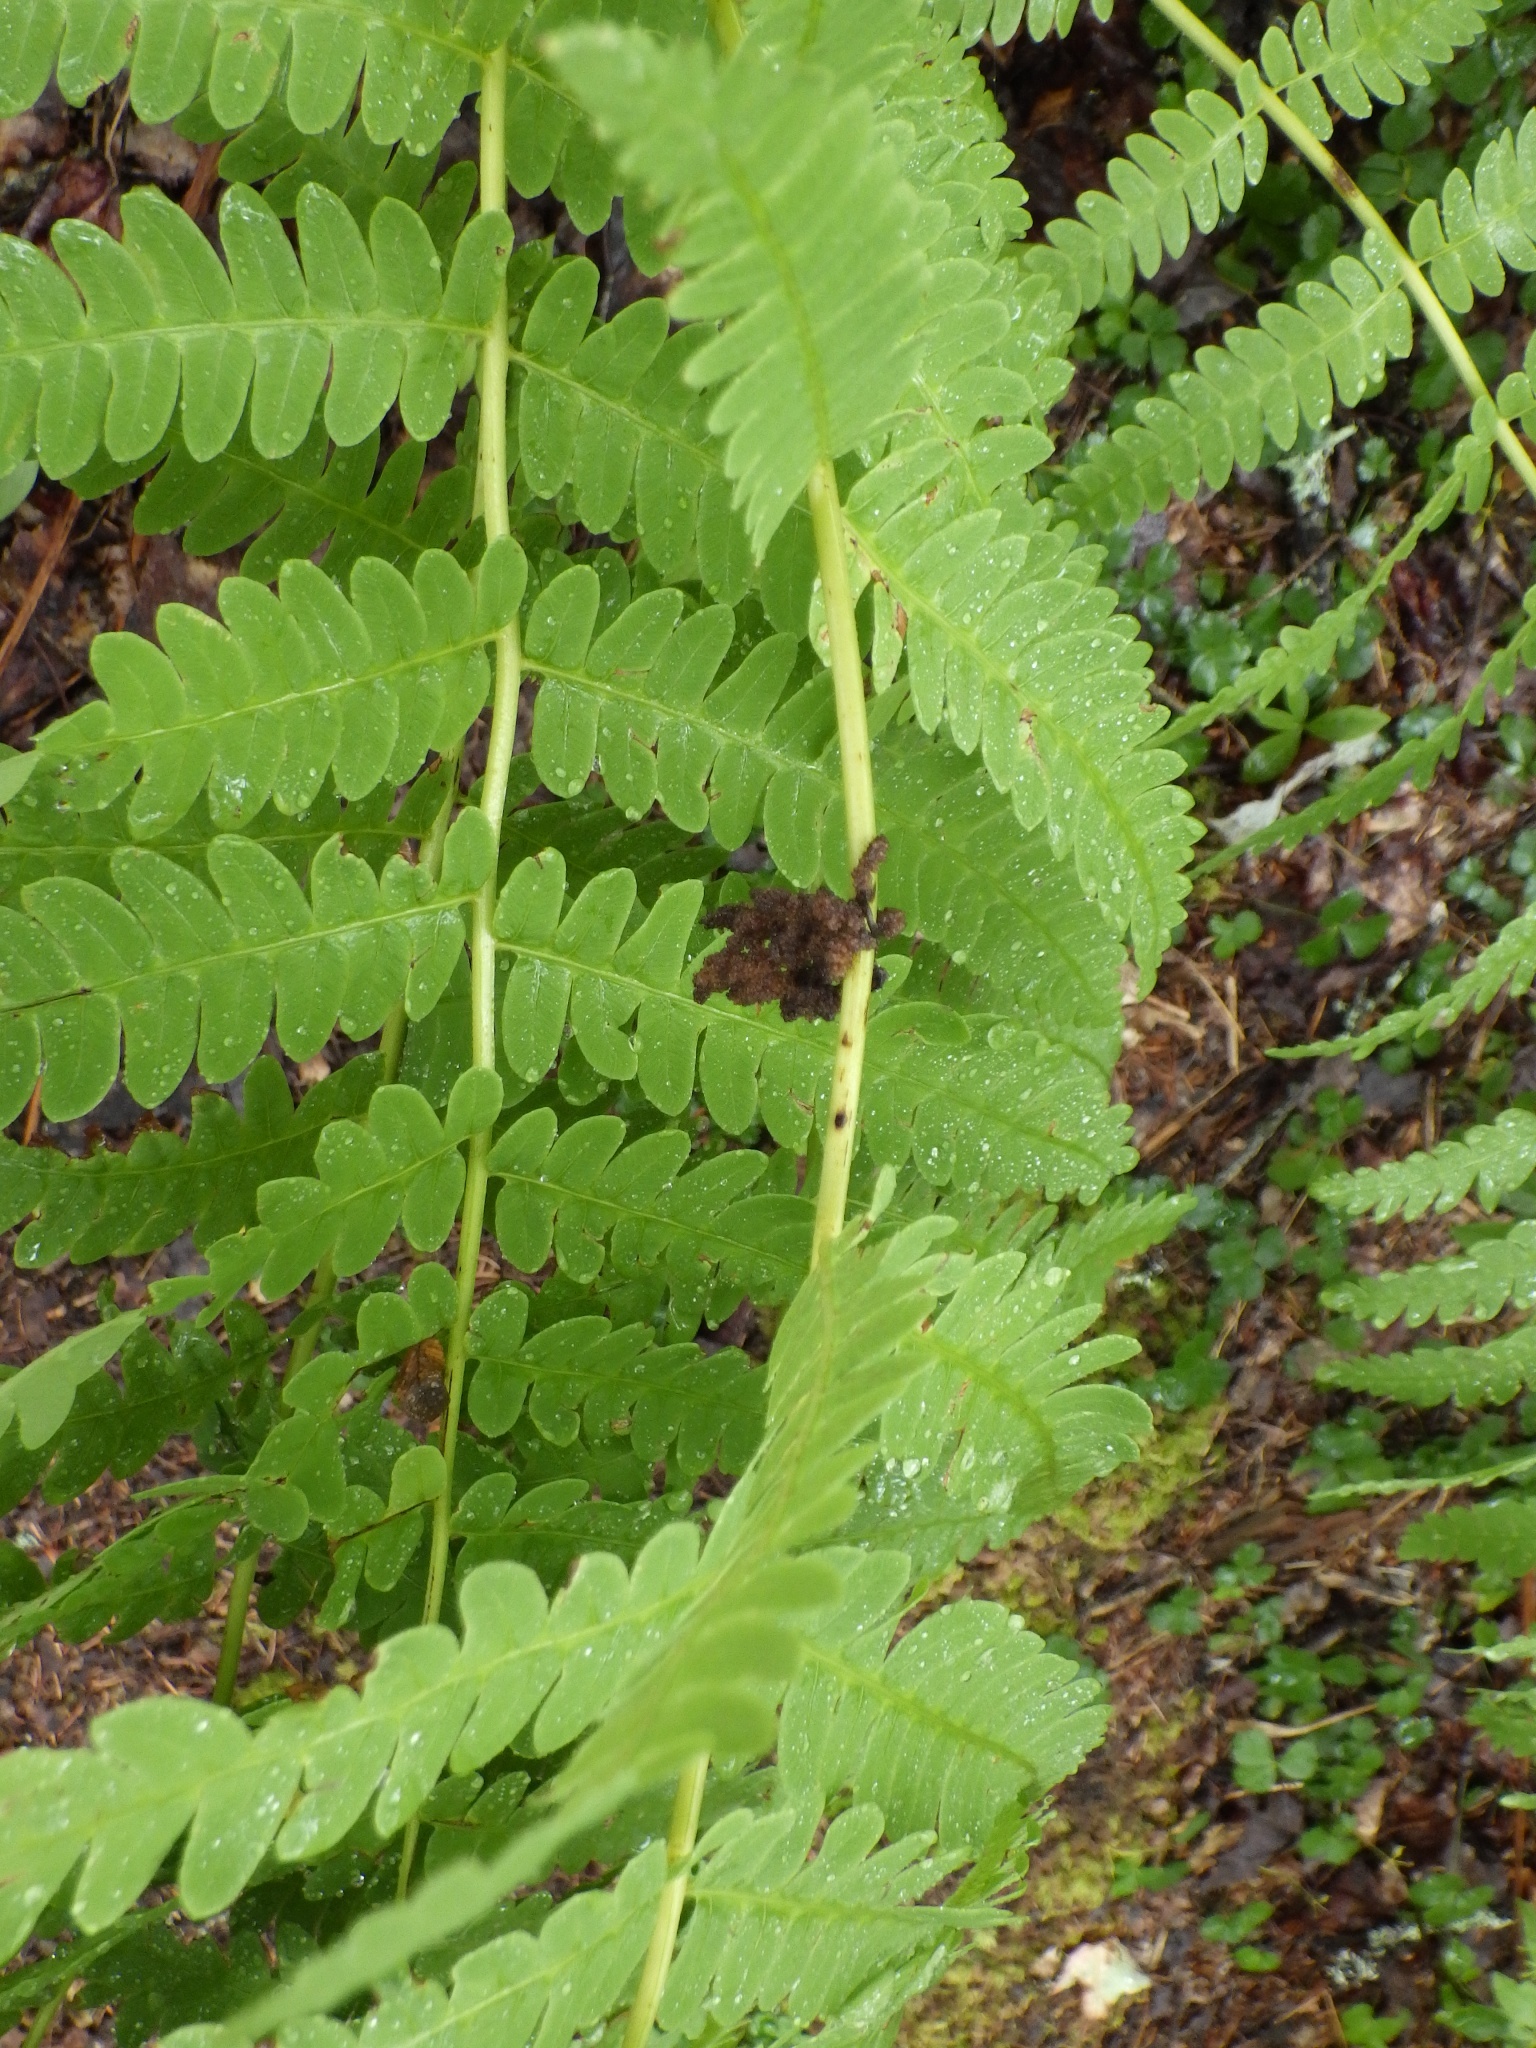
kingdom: Plantae
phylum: Tracheophyta
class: Polypodiopsida
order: Osmundales
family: Osmundaceae
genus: Claytosmunda
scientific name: Claytosmunda claytoniana
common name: Clayton's fern
